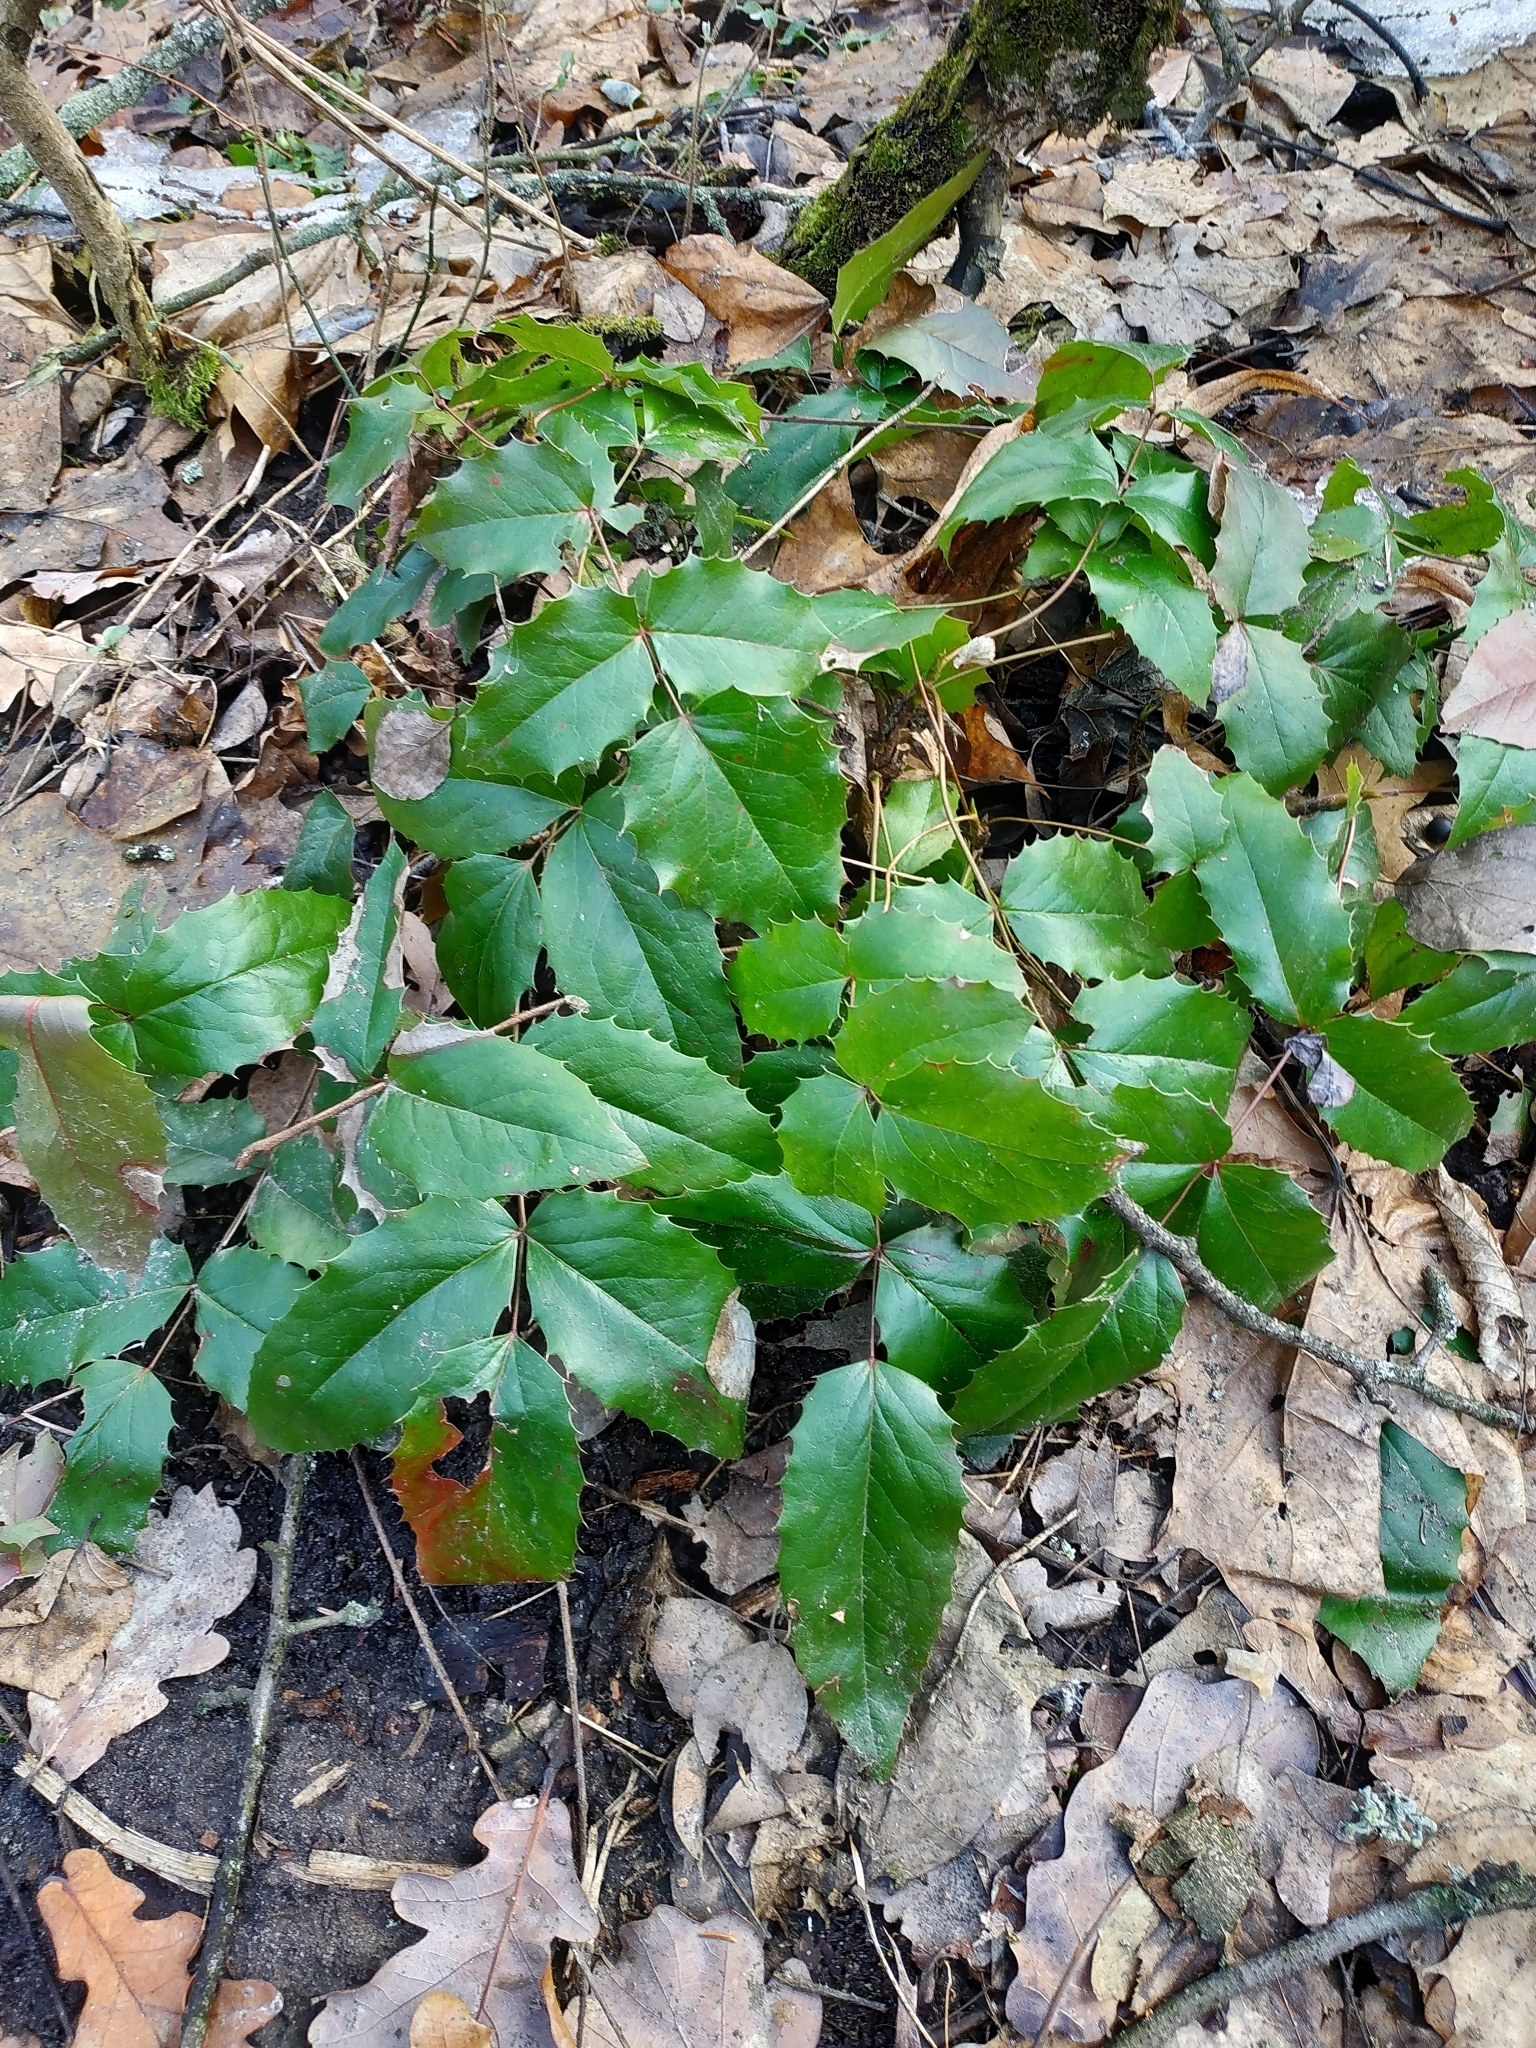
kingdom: Plantae
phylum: Tracheophyta
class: Magnoliopsida
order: Ranunculales
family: Berberidaceae
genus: Mahonia
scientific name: Mahonia aquifolium
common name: Oregon-grape
